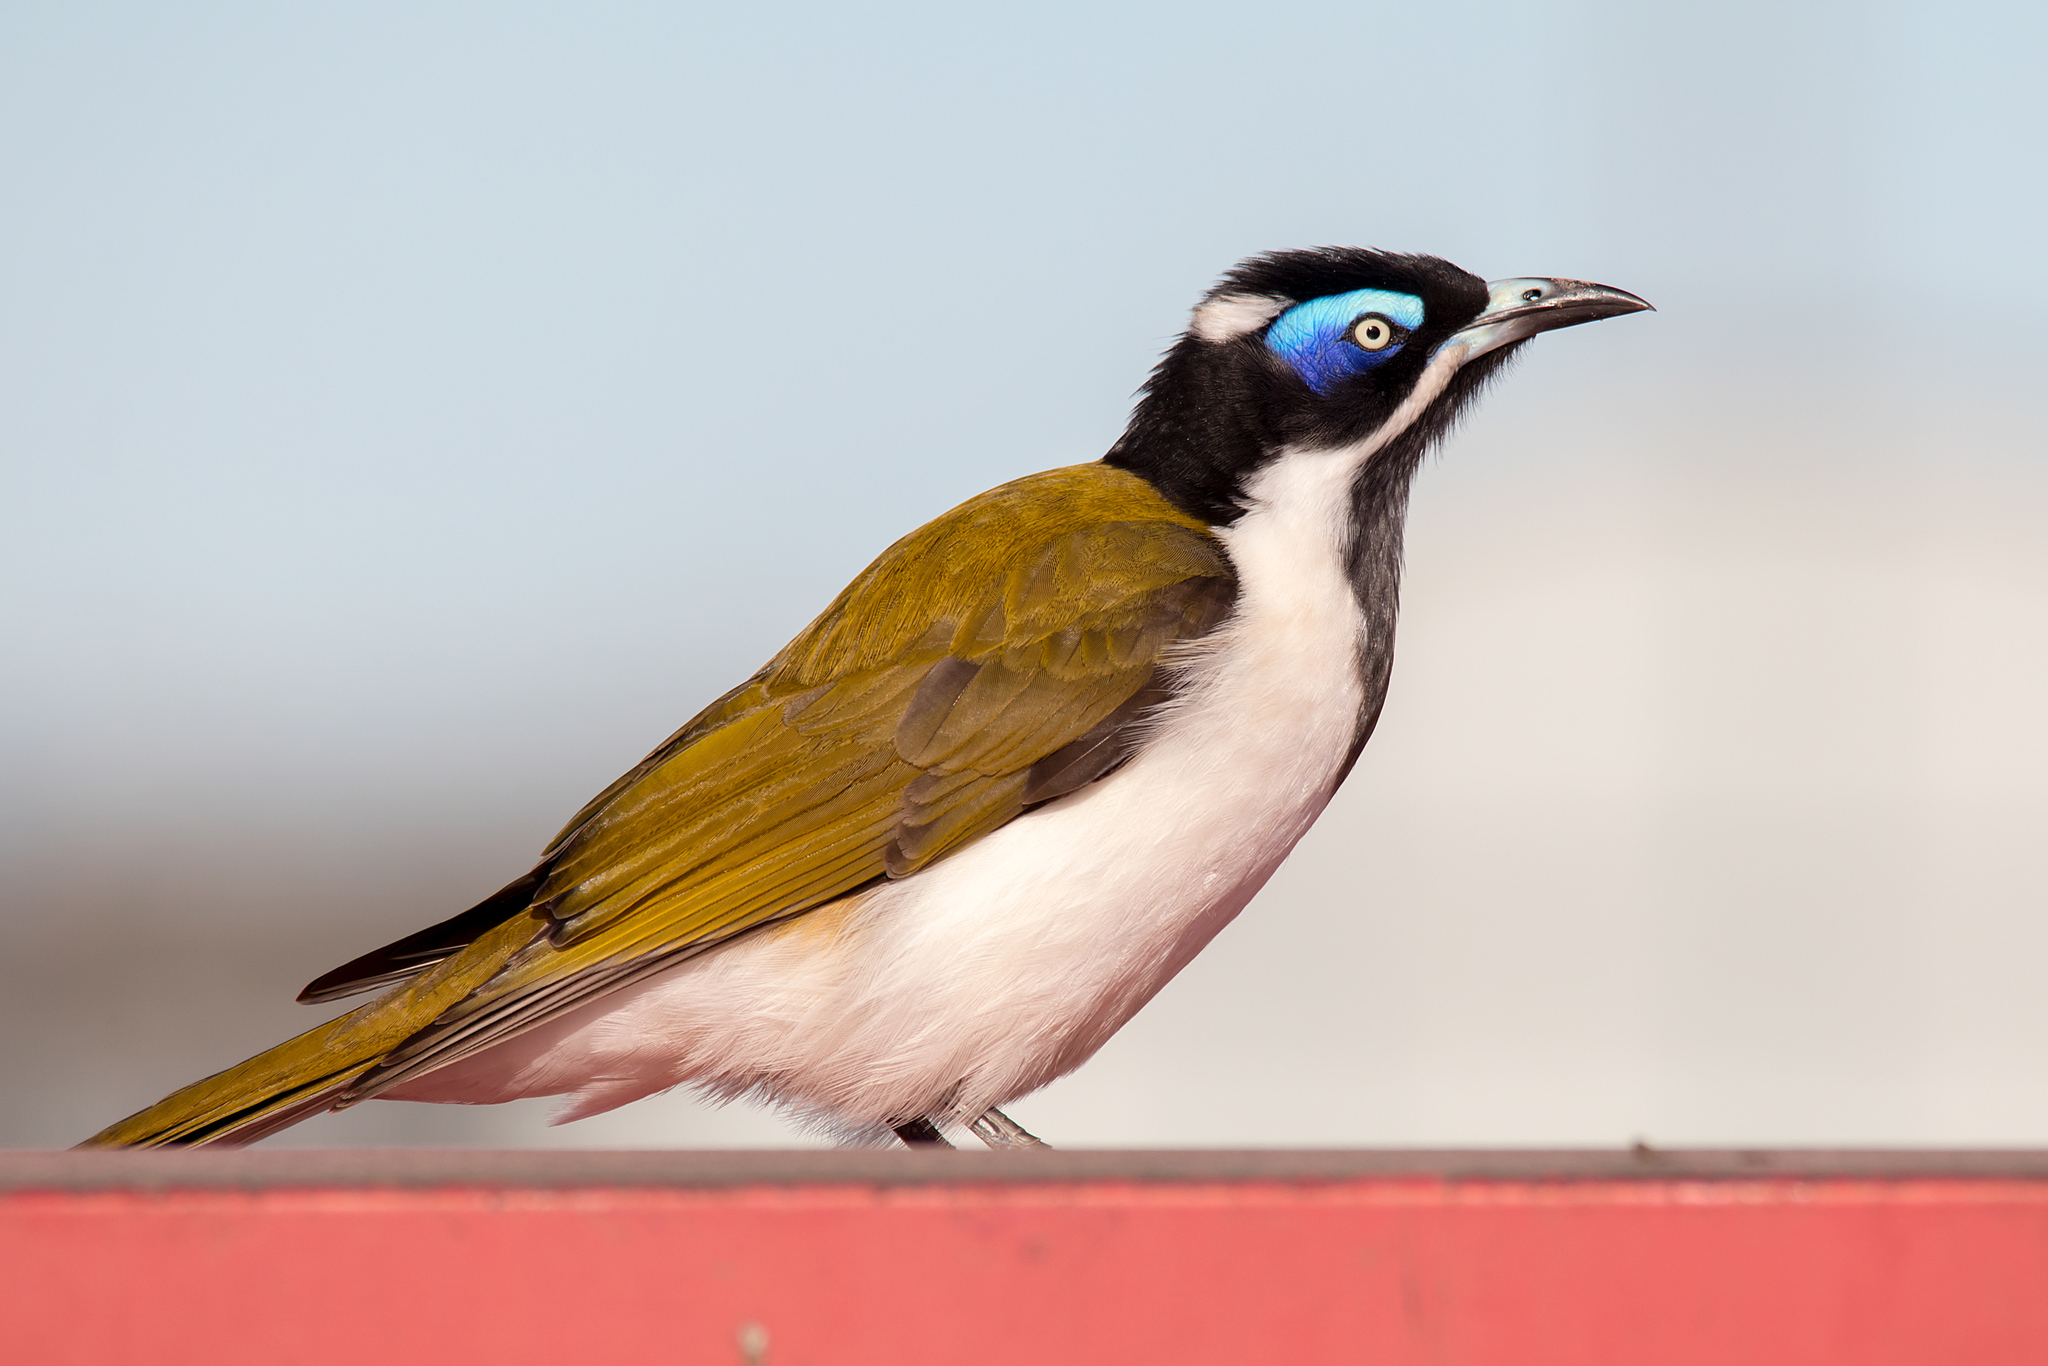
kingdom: Animalia
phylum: Chordata
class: Aves
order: Passeriformes
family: Meliphagidae
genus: Entomyzon
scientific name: Entomyzon cyanotis
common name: Blue-faced honeyeater
